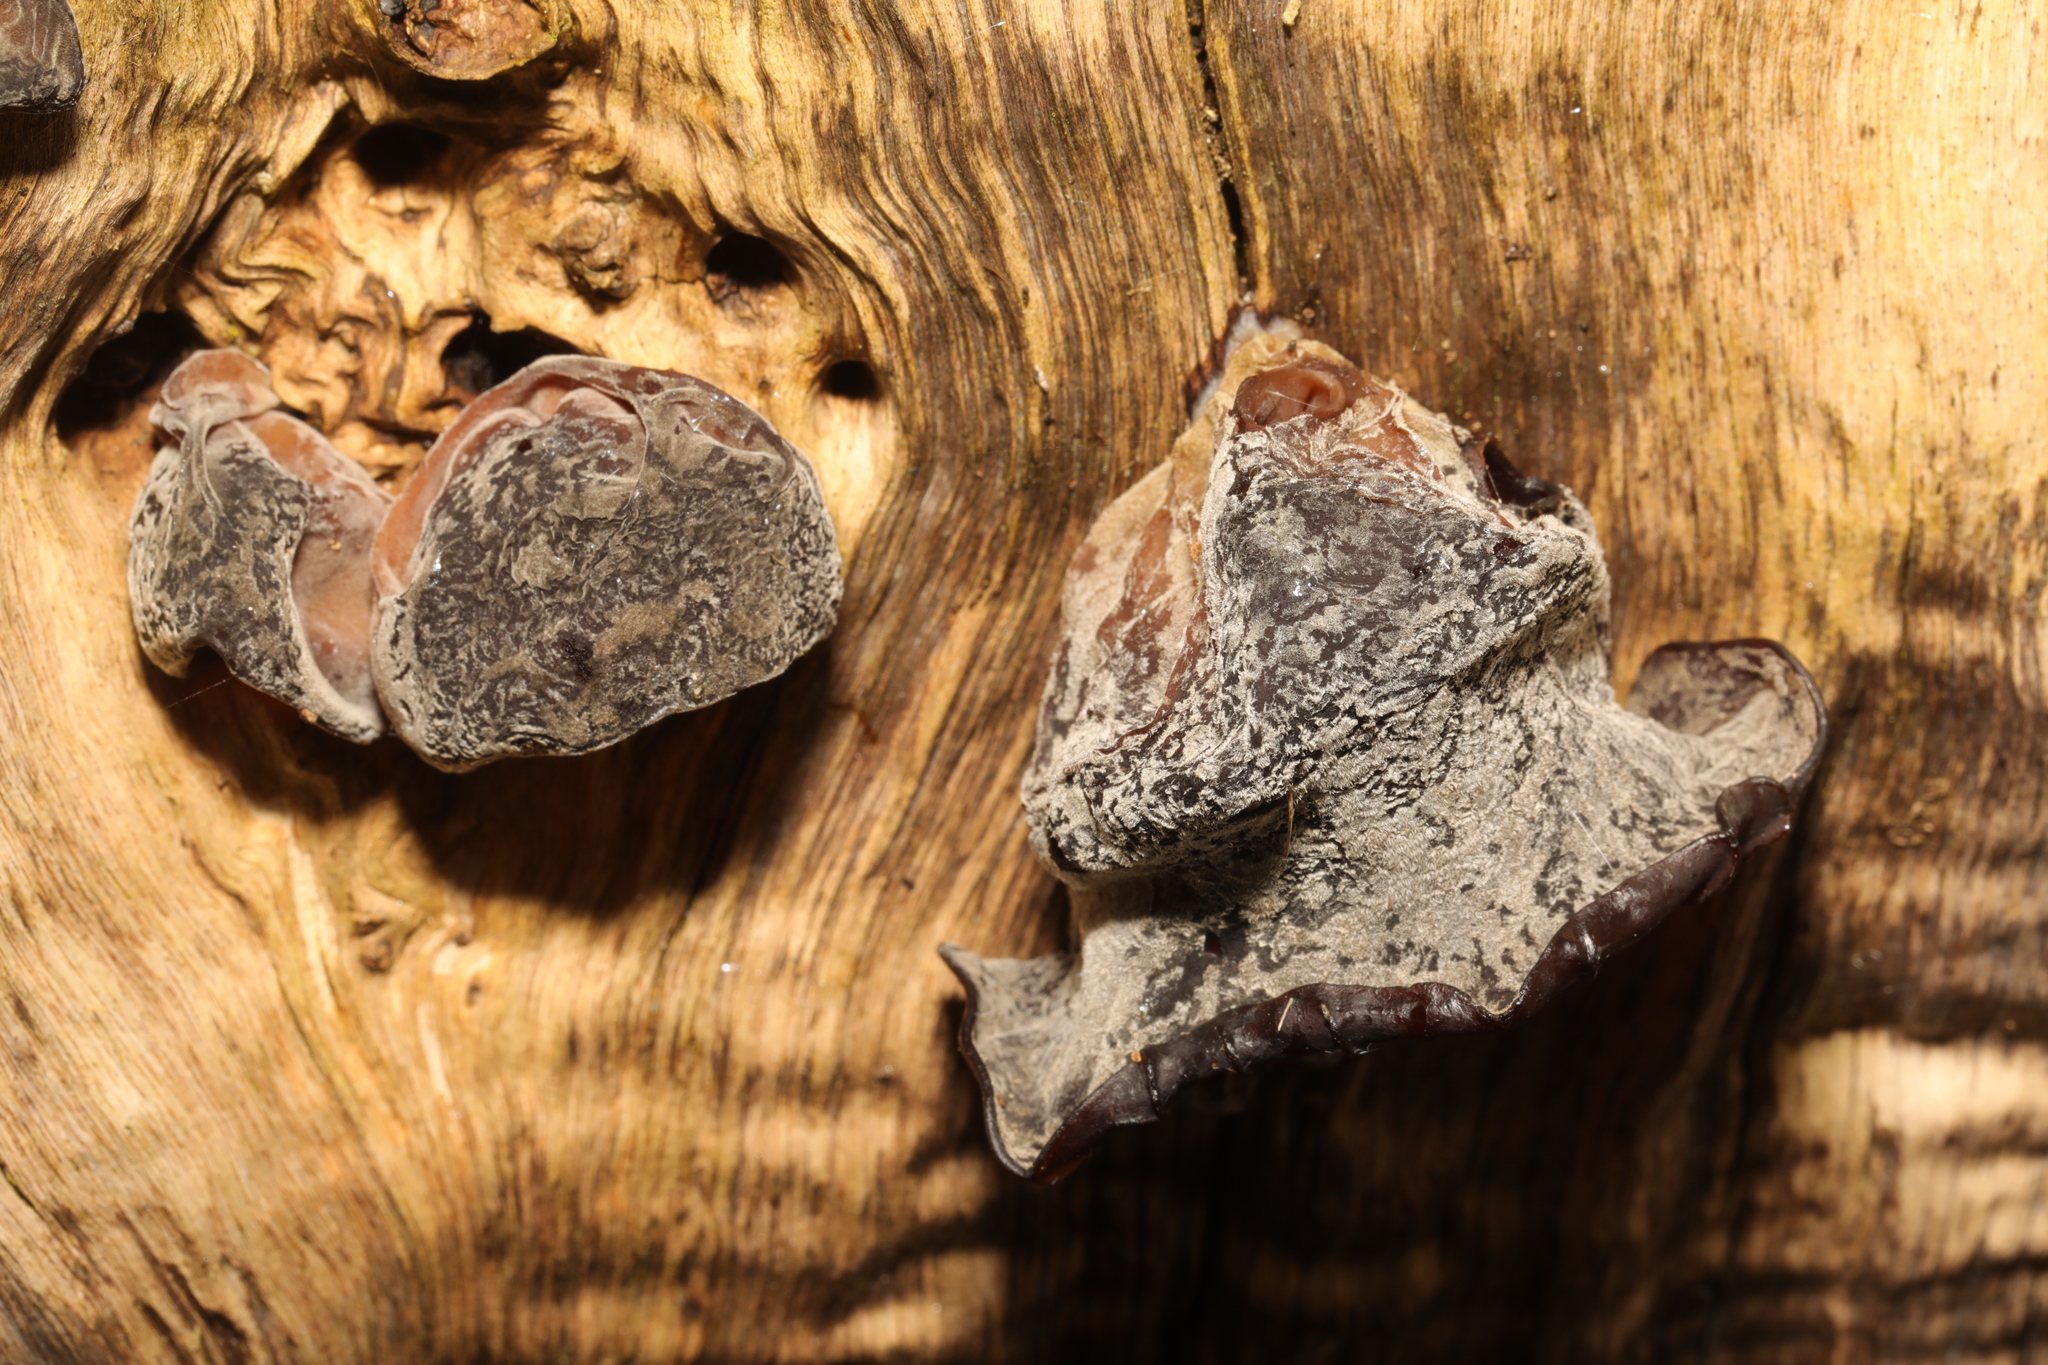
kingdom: Fungi
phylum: Basidiomycota
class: Agaricomycetes
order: Auriculariales
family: Auriculariaceae
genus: Auricularia
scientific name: Auricularia auricula-judae
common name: Jelly ear
